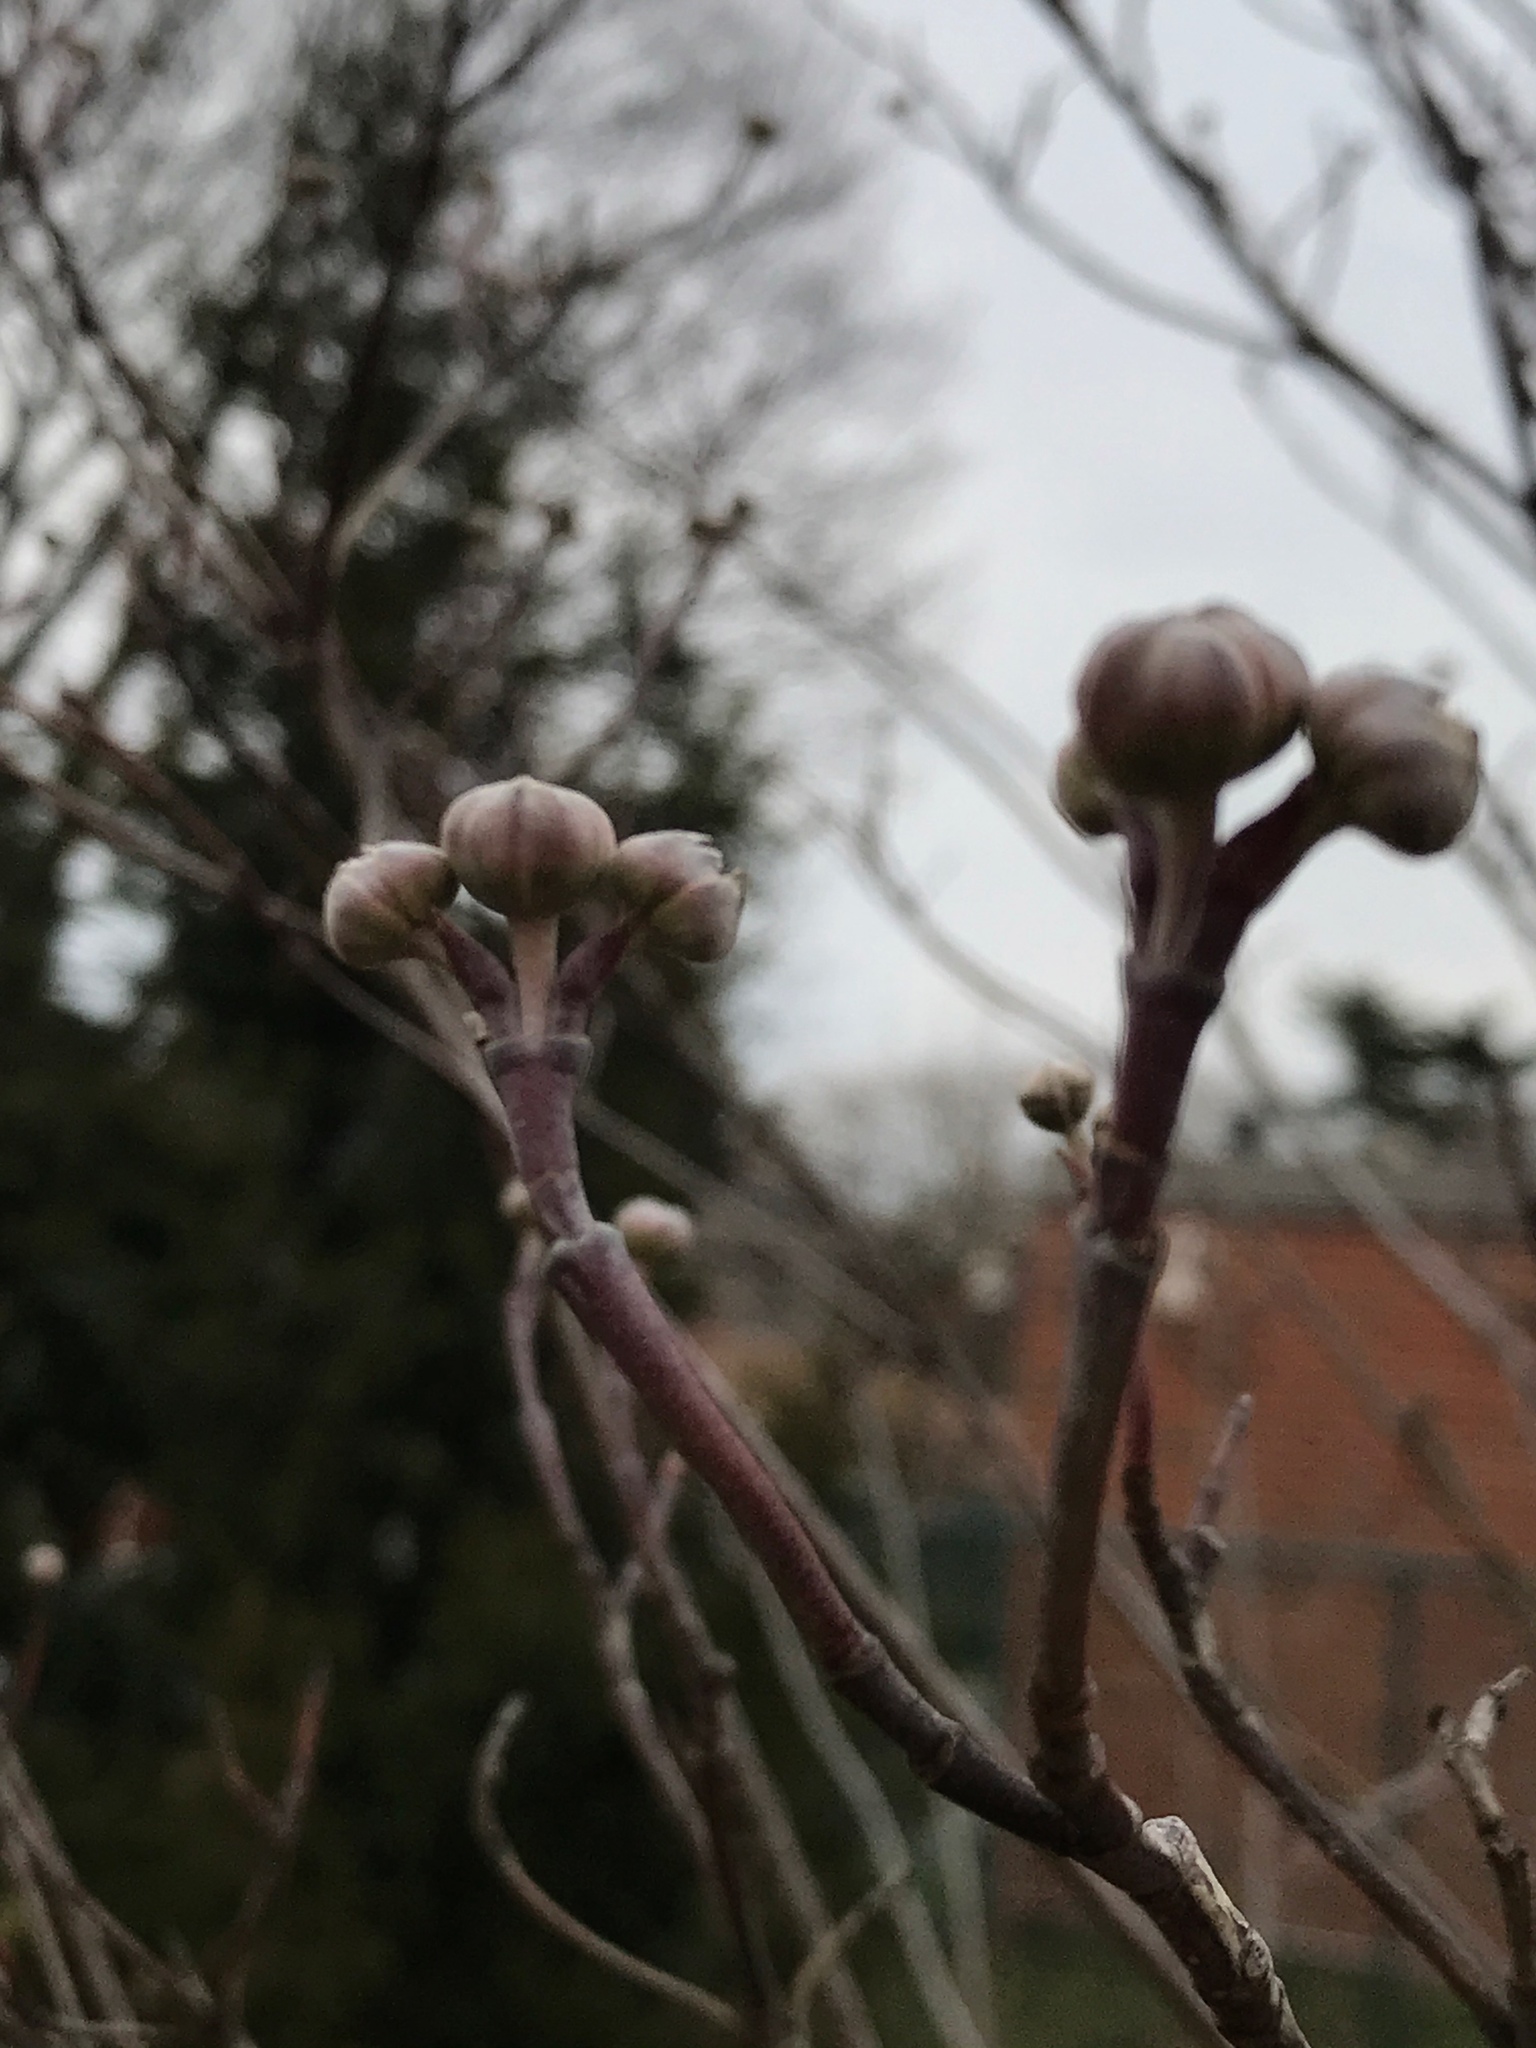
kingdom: Plantae
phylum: Tracheophyta
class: Magnoliopsida
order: Cornales
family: Cornaceae
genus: Cornus
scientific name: Cornus florida
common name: Flowering dogwood
